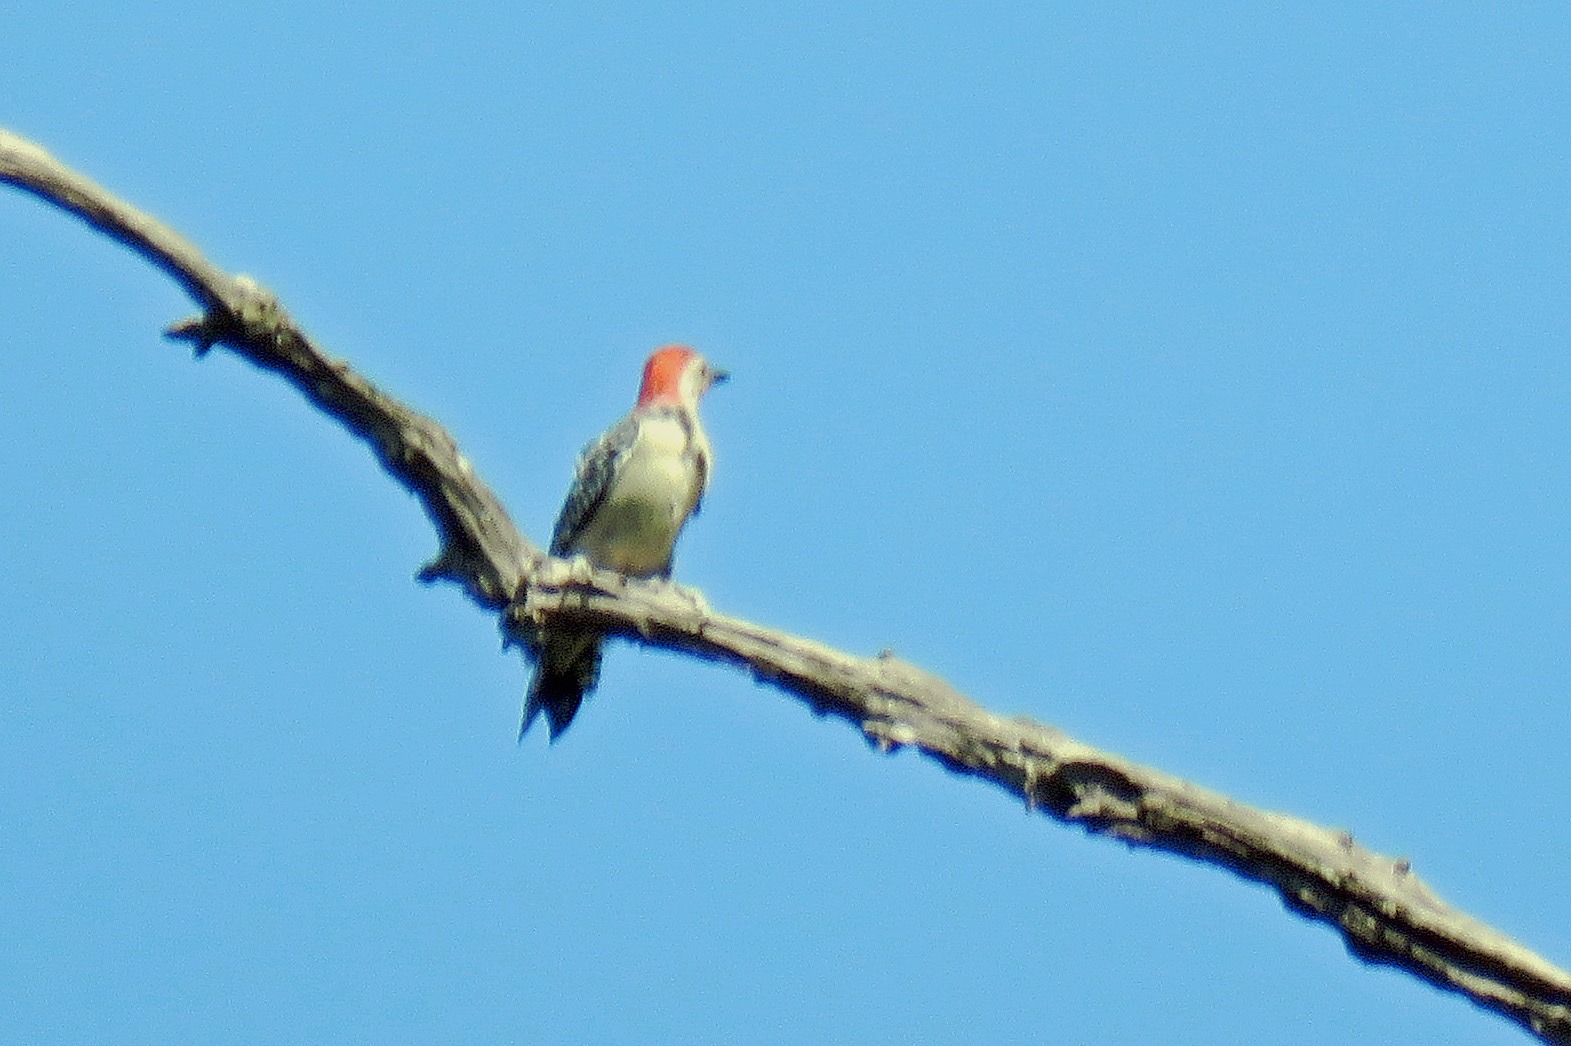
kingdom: Animalia
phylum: Chordata
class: Aves
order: Piciformes
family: Picidae
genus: Melanerpes
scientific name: Melanerpes carolinus
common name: Red-bellied woodpecker
